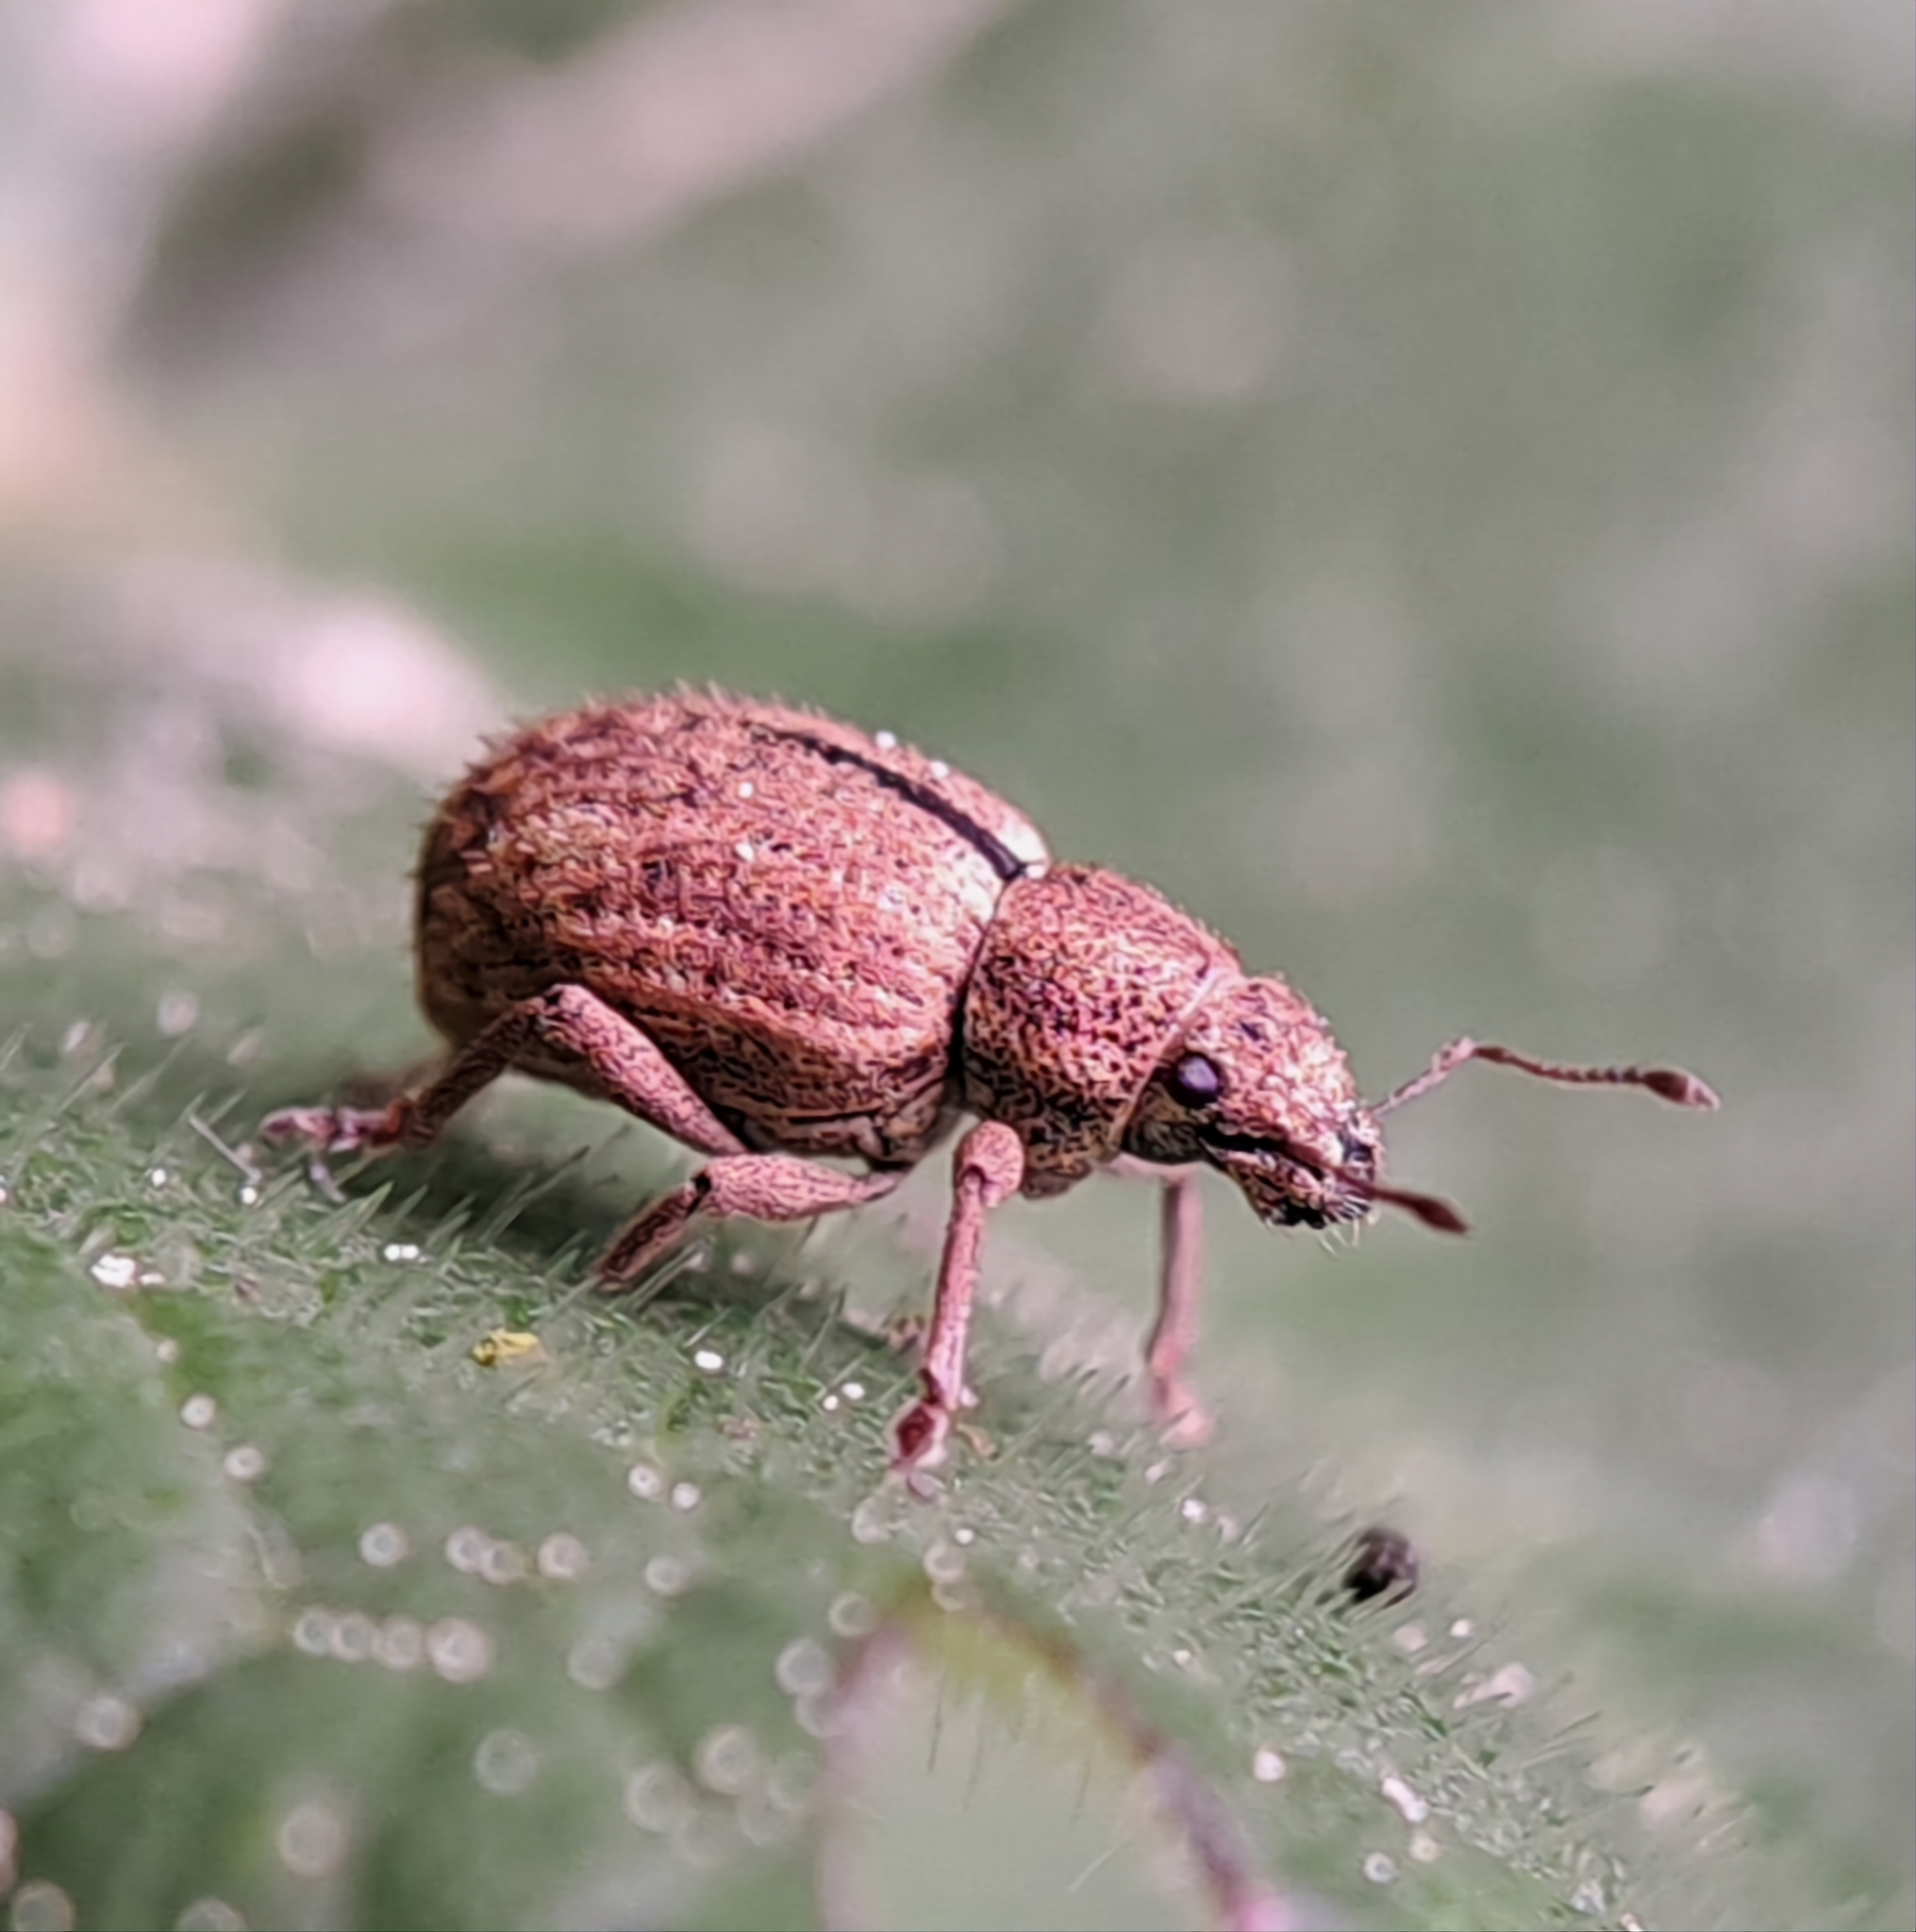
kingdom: Animalia
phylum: Arthropoda
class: Insecta
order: Coleoptera
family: Curculionidae
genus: Strophosoma
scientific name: Strophosoma melanogrammum
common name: Weevil
